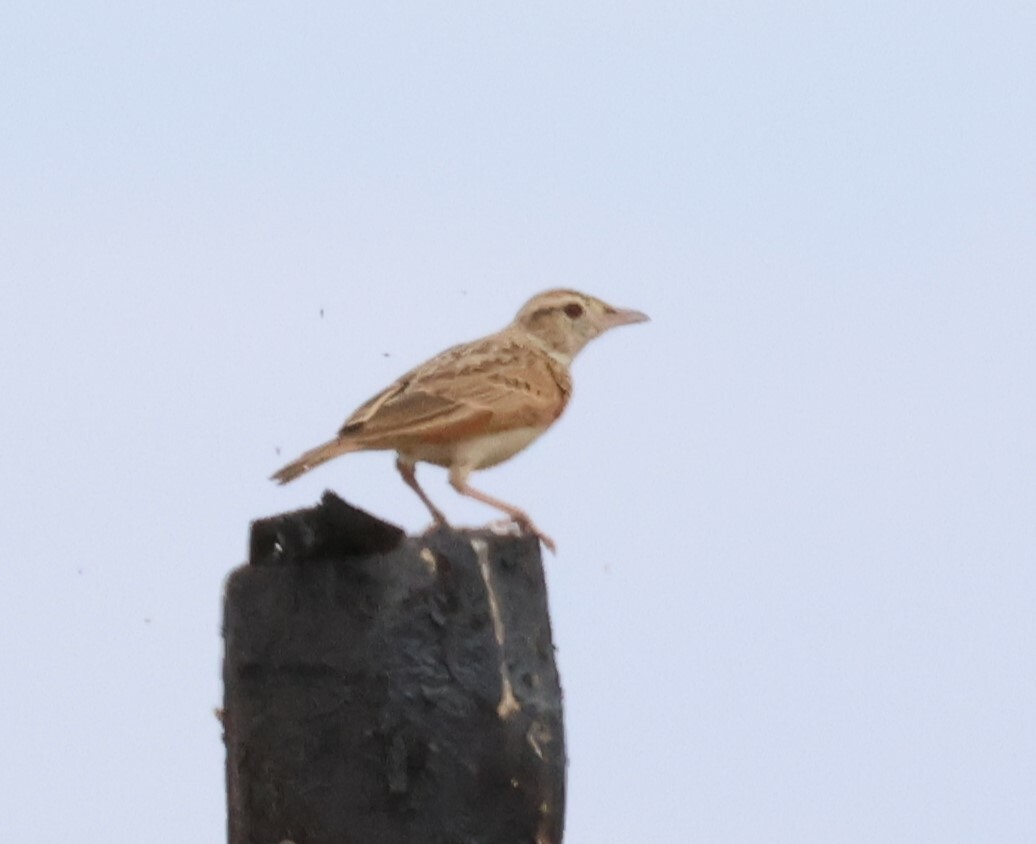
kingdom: Animalia
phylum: Chordata
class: Aves
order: Passeriformes
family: Alaudidae
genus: Mirafra
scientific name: Mirafra africana
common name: Rufous-naped lark
